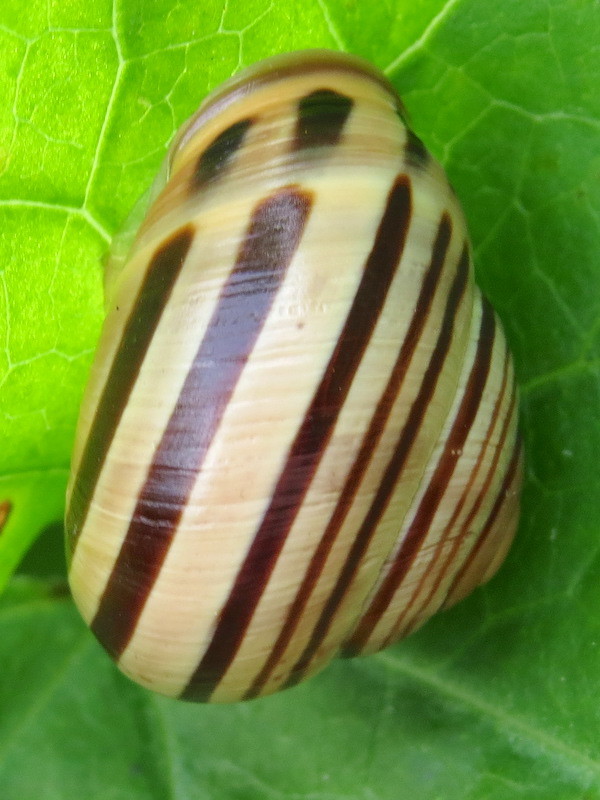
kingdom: Animalia
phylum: Mollusca
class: Gastropoda
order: Stylommatophora
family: Helicidae
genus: Cepaea
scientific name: Cepaea nemoralis
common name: Grovesnail
